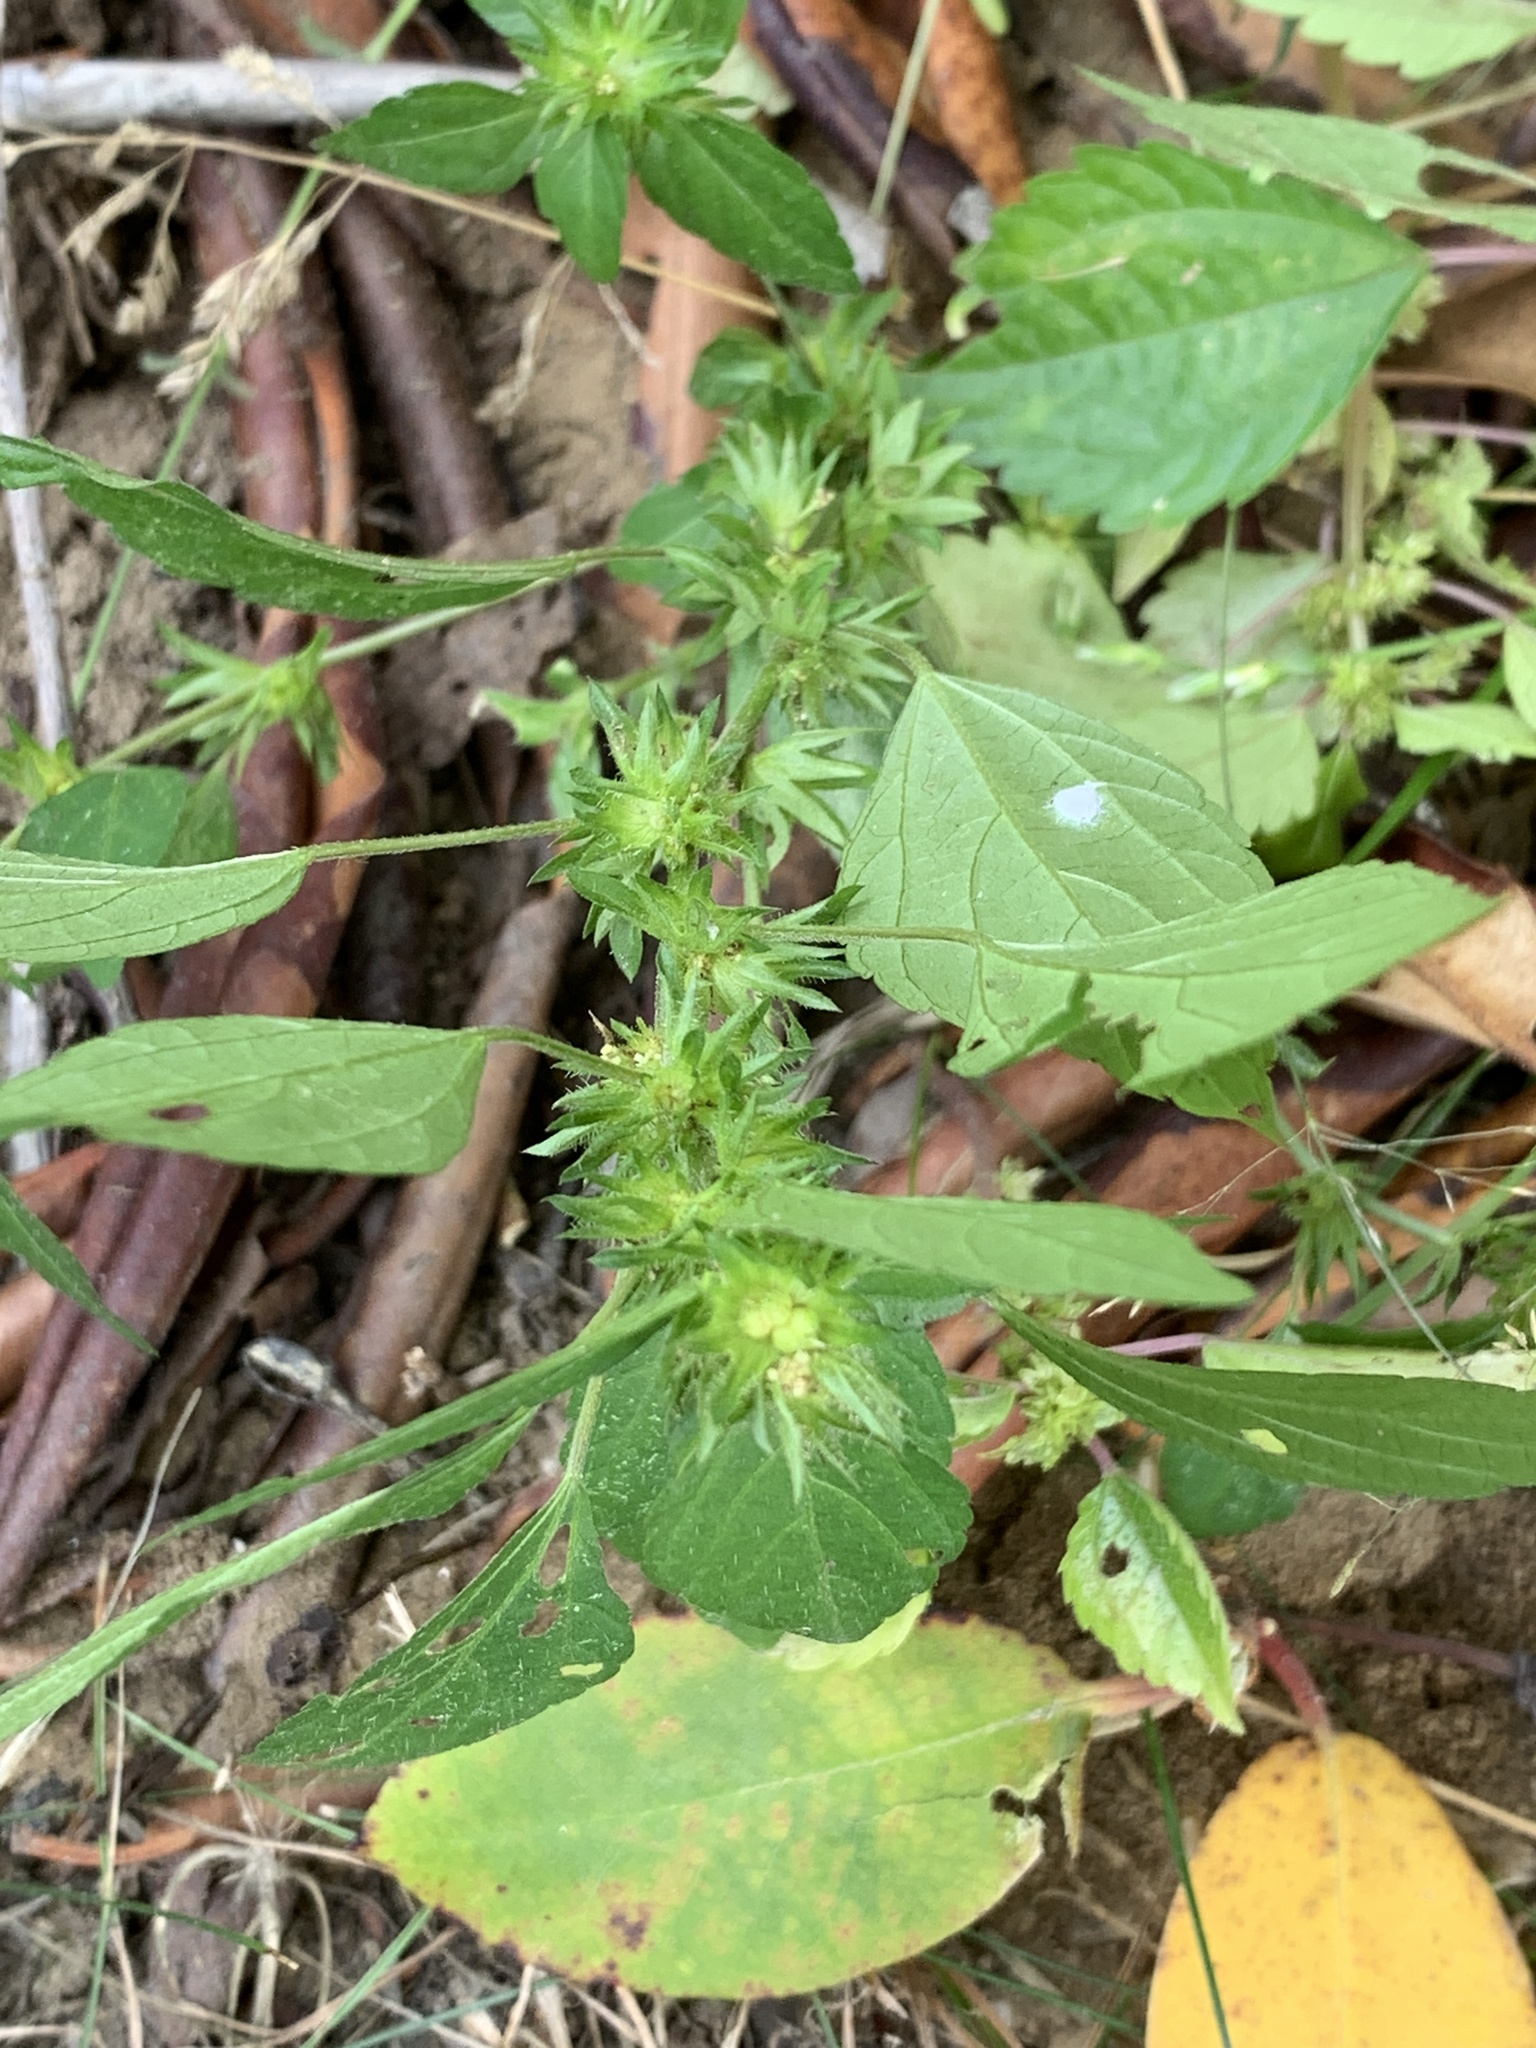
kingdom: Plantae
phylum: Tracheophyta
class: Magnoliopsida
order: Malpighiales
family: Euphorbiaceae
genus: Acalypha
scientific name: Acalypha rhomboidea
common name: Rhombic copperleaf
